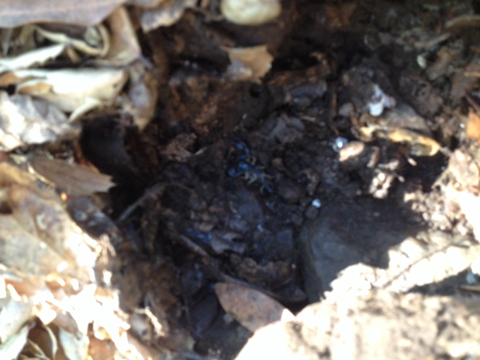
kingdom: Animalia
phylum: Arthropoda
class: Arachnida
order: Scorpiones
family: Chactidae
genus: Uroctonus
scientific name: Uroctonus mordax
